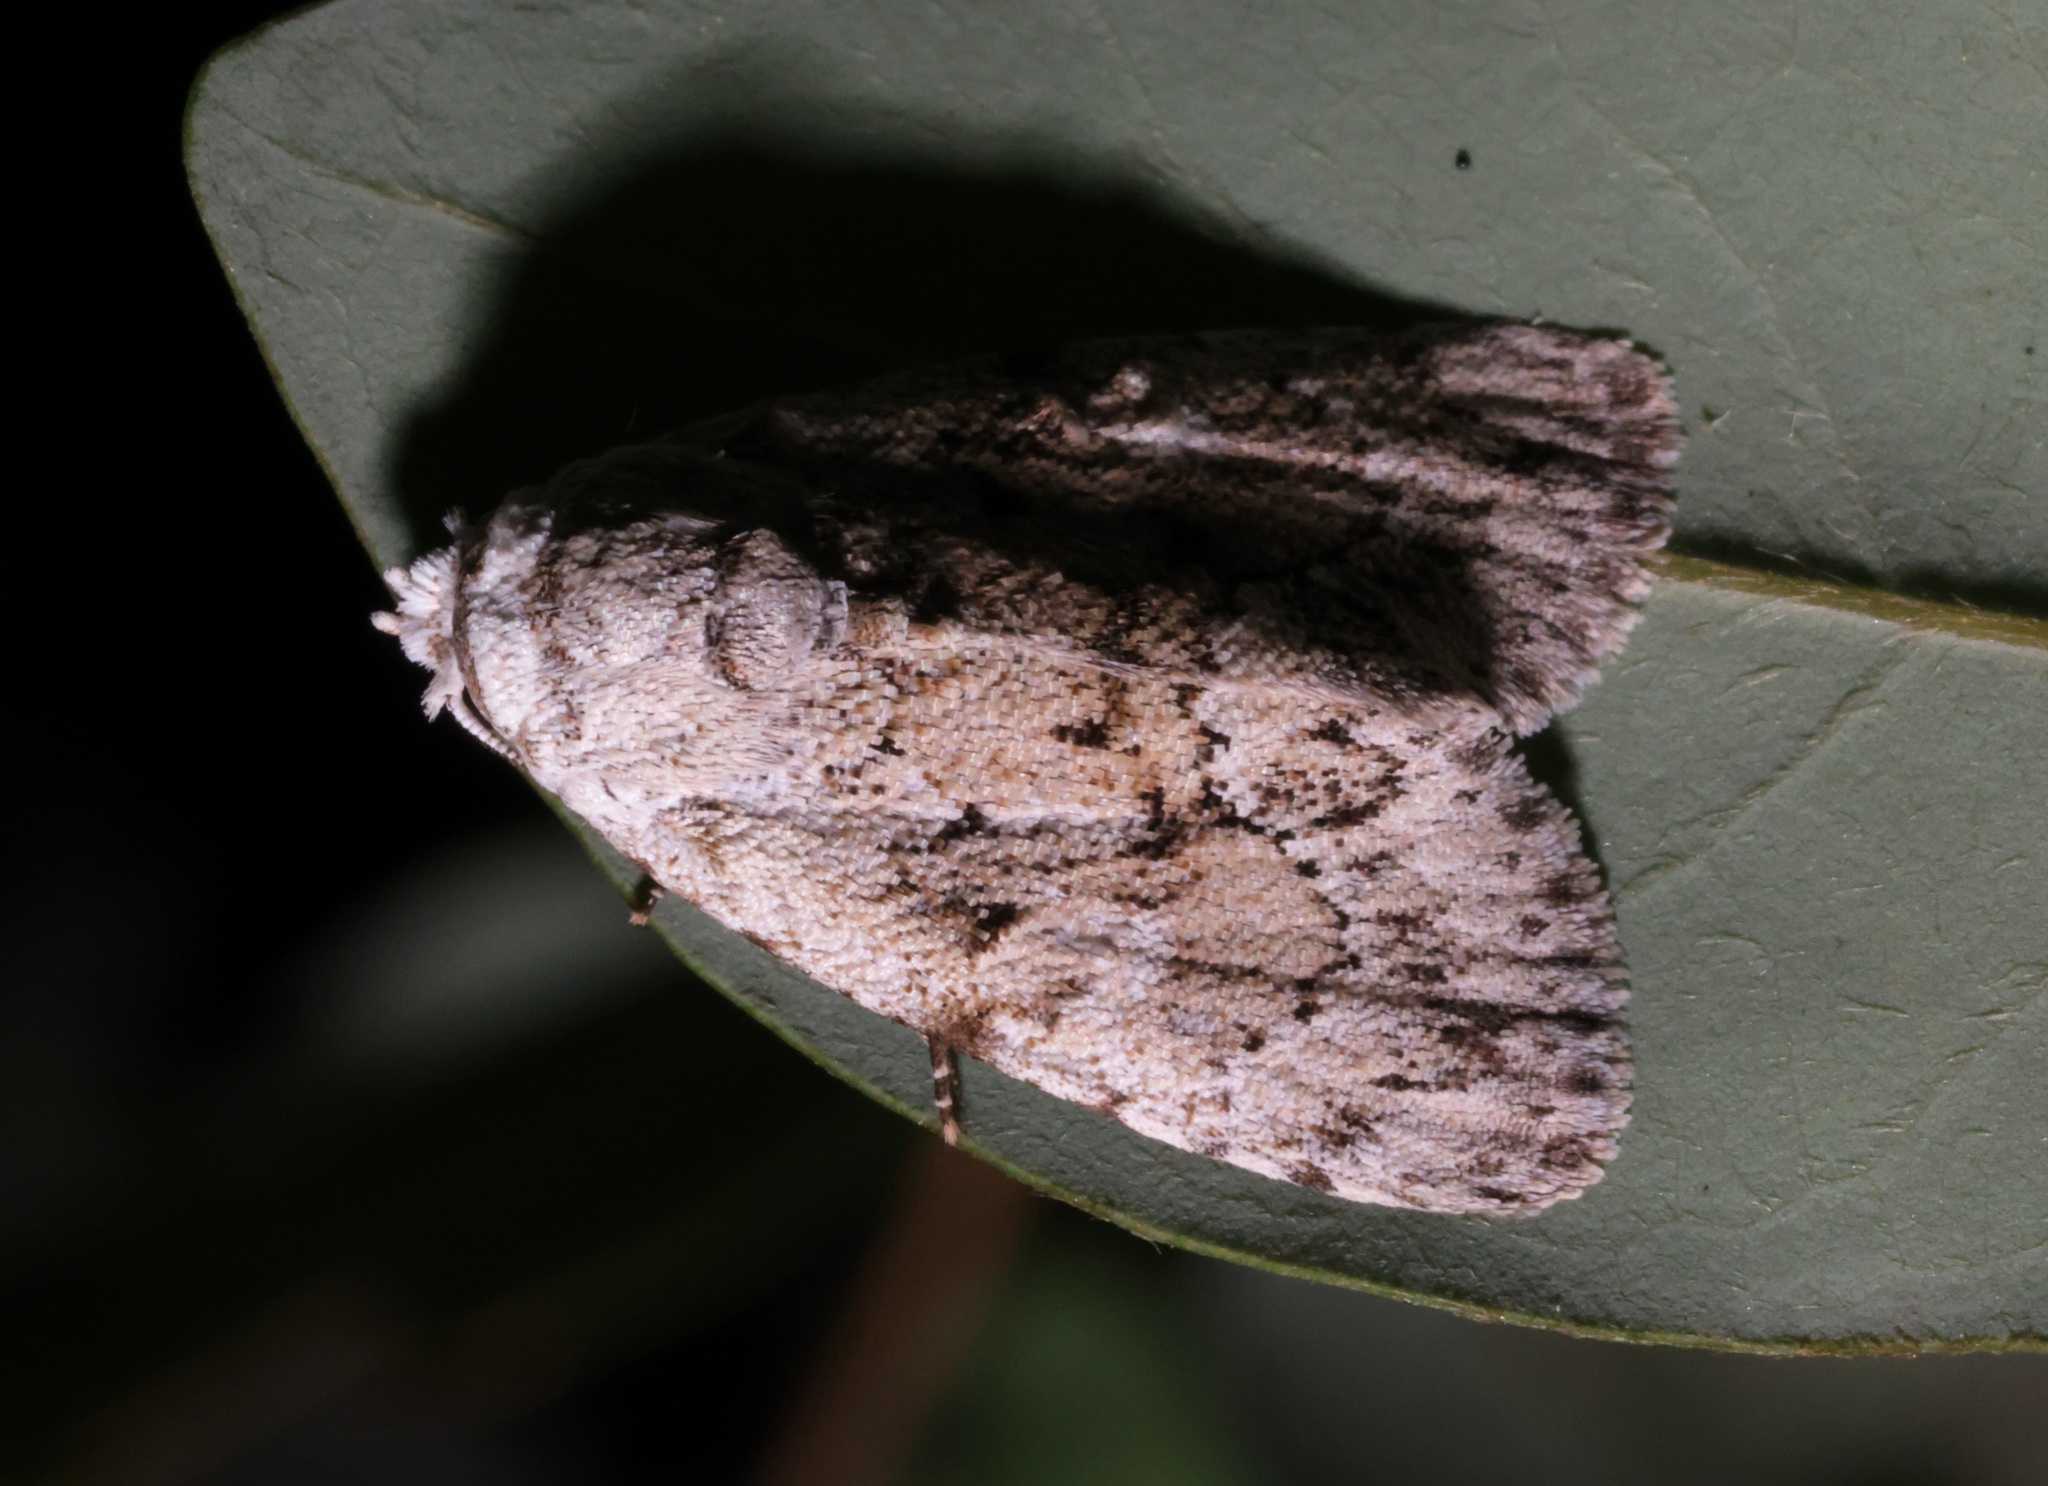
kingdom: Animalia
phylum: Arthropoda
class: Insecta
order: Lepidoptera
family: Nolidae
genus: Barasa
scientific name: Barasa acronyctoides
